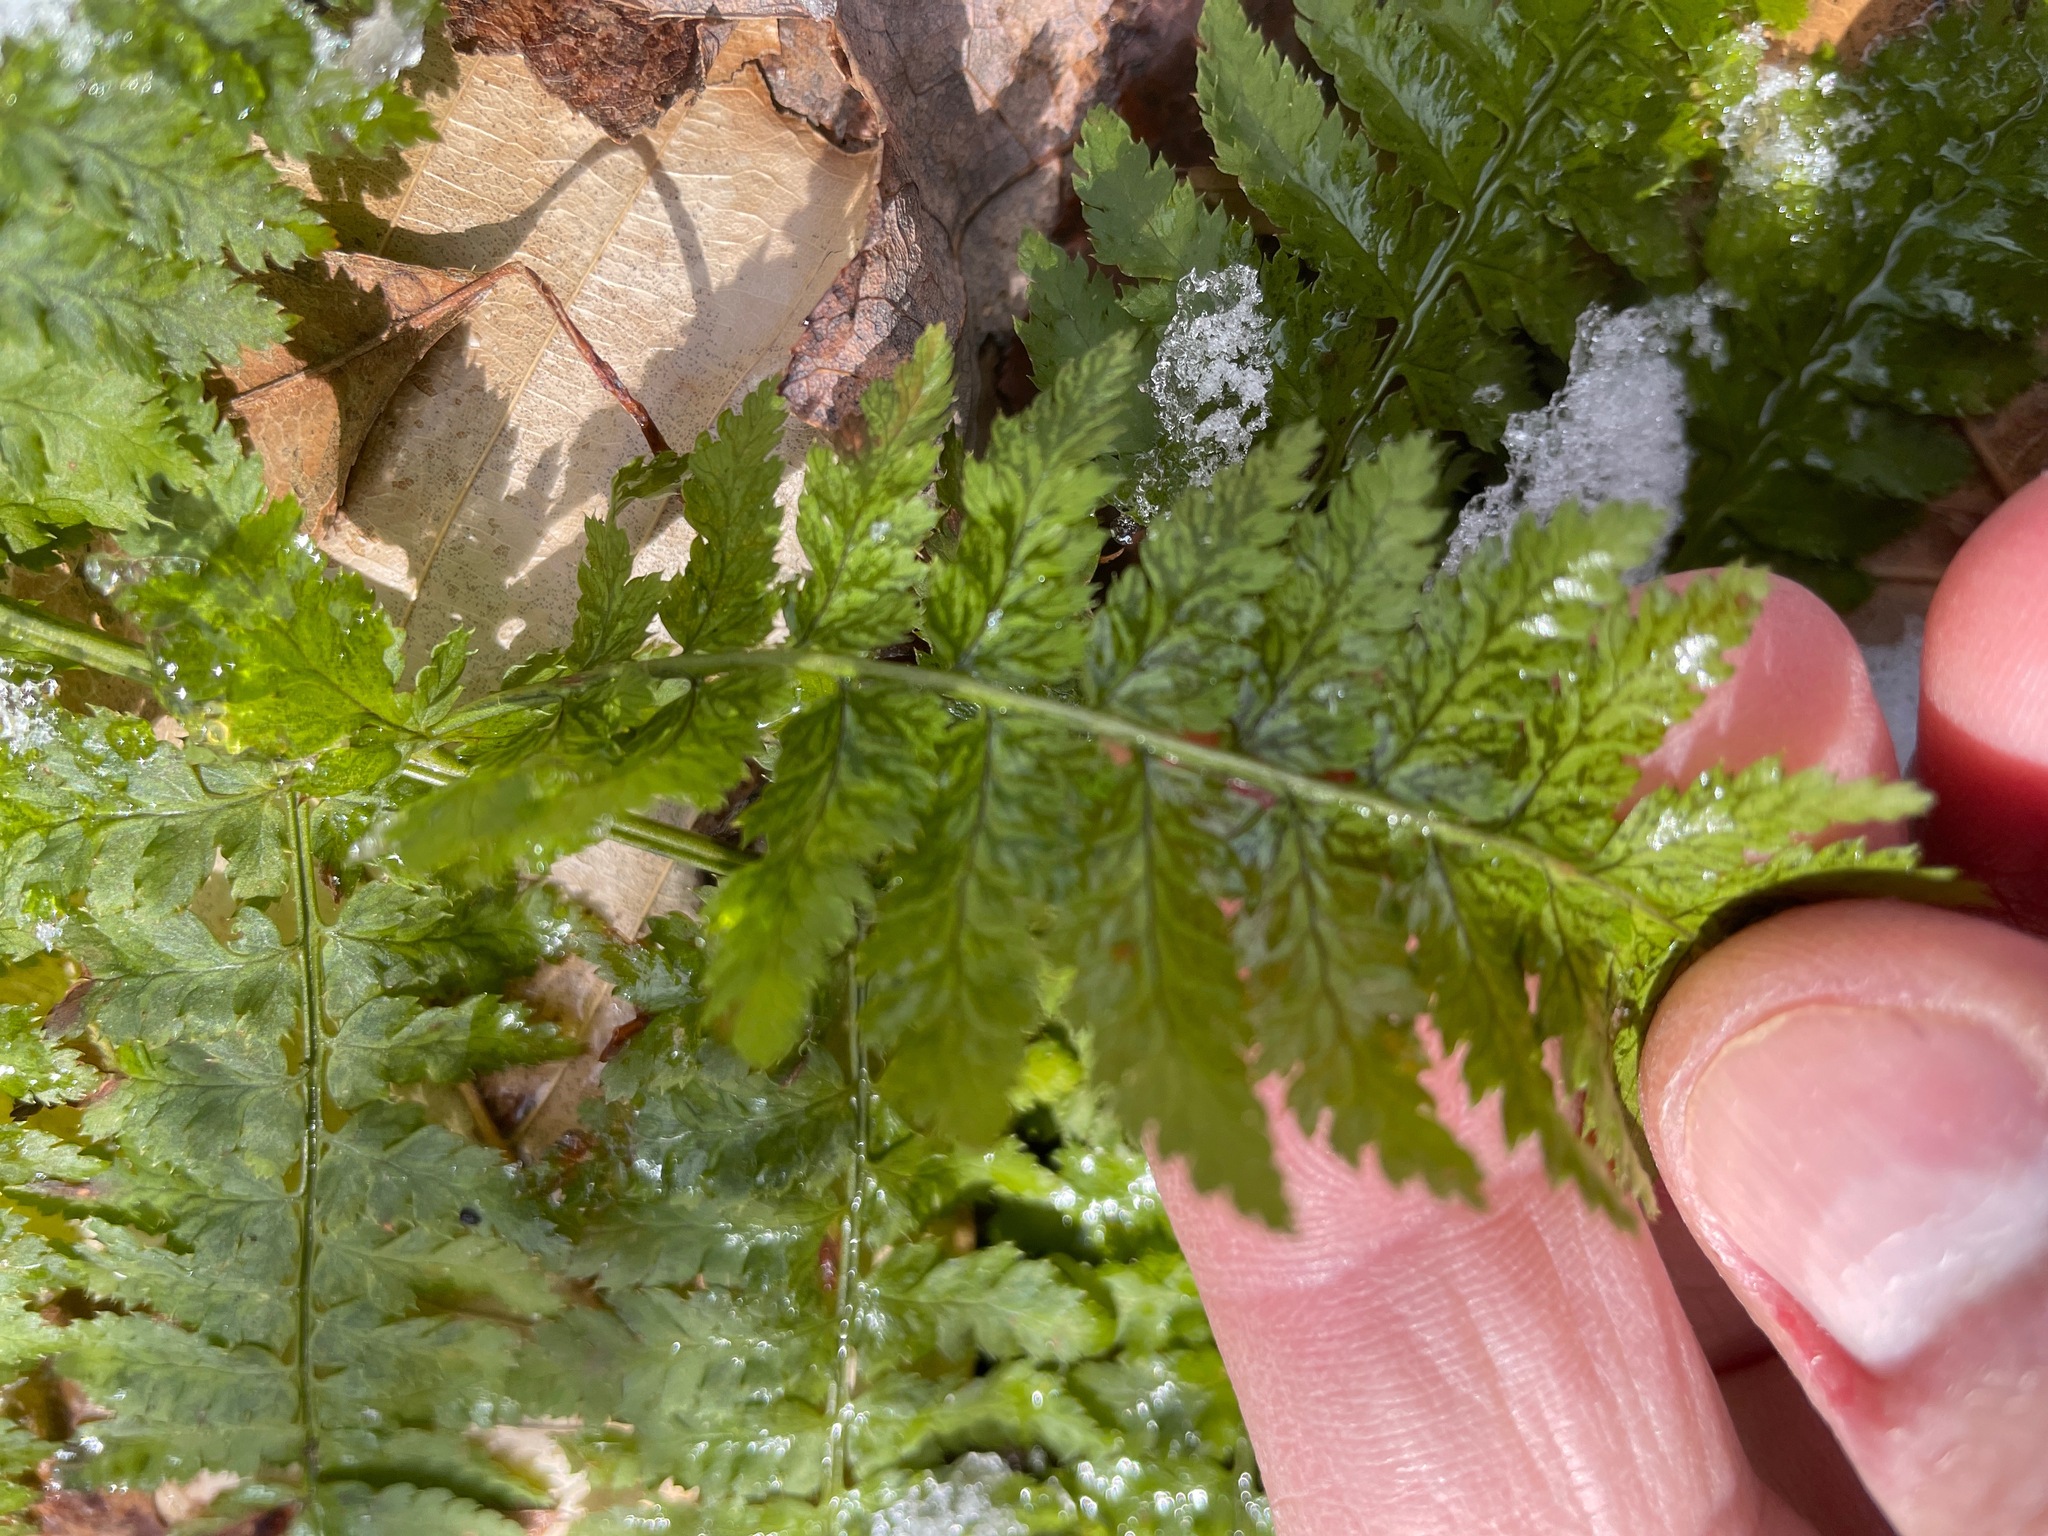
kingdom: Plantae
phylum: Tracheophyta
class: Polypodiopsida
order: Polypodiales
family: Dryopteridaceae
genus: Dryopteris
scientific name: Dryopteris intermedia
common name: Evergreen wood fern
